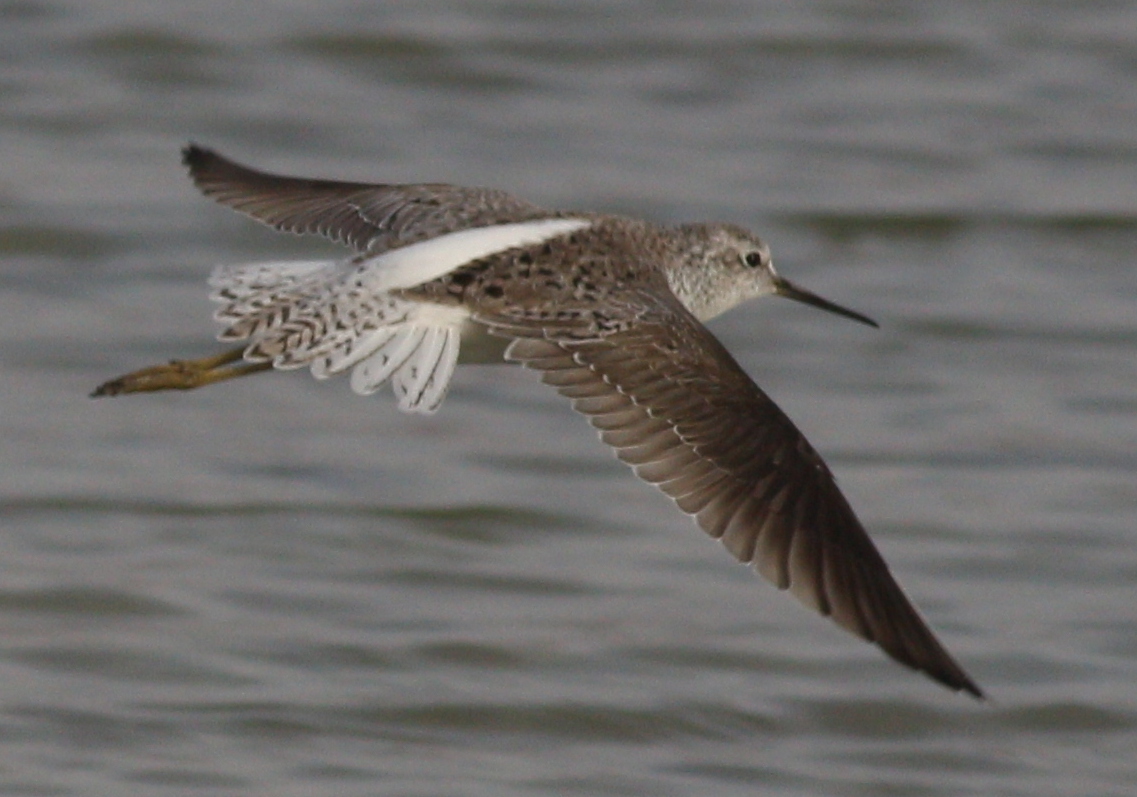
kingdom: Animalia
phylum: Chordata
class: Aves
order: Charadriiformes
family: Scolopacidae
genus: Tringa
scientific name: Tringa stagnatilis
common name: Marsh sandpiper
